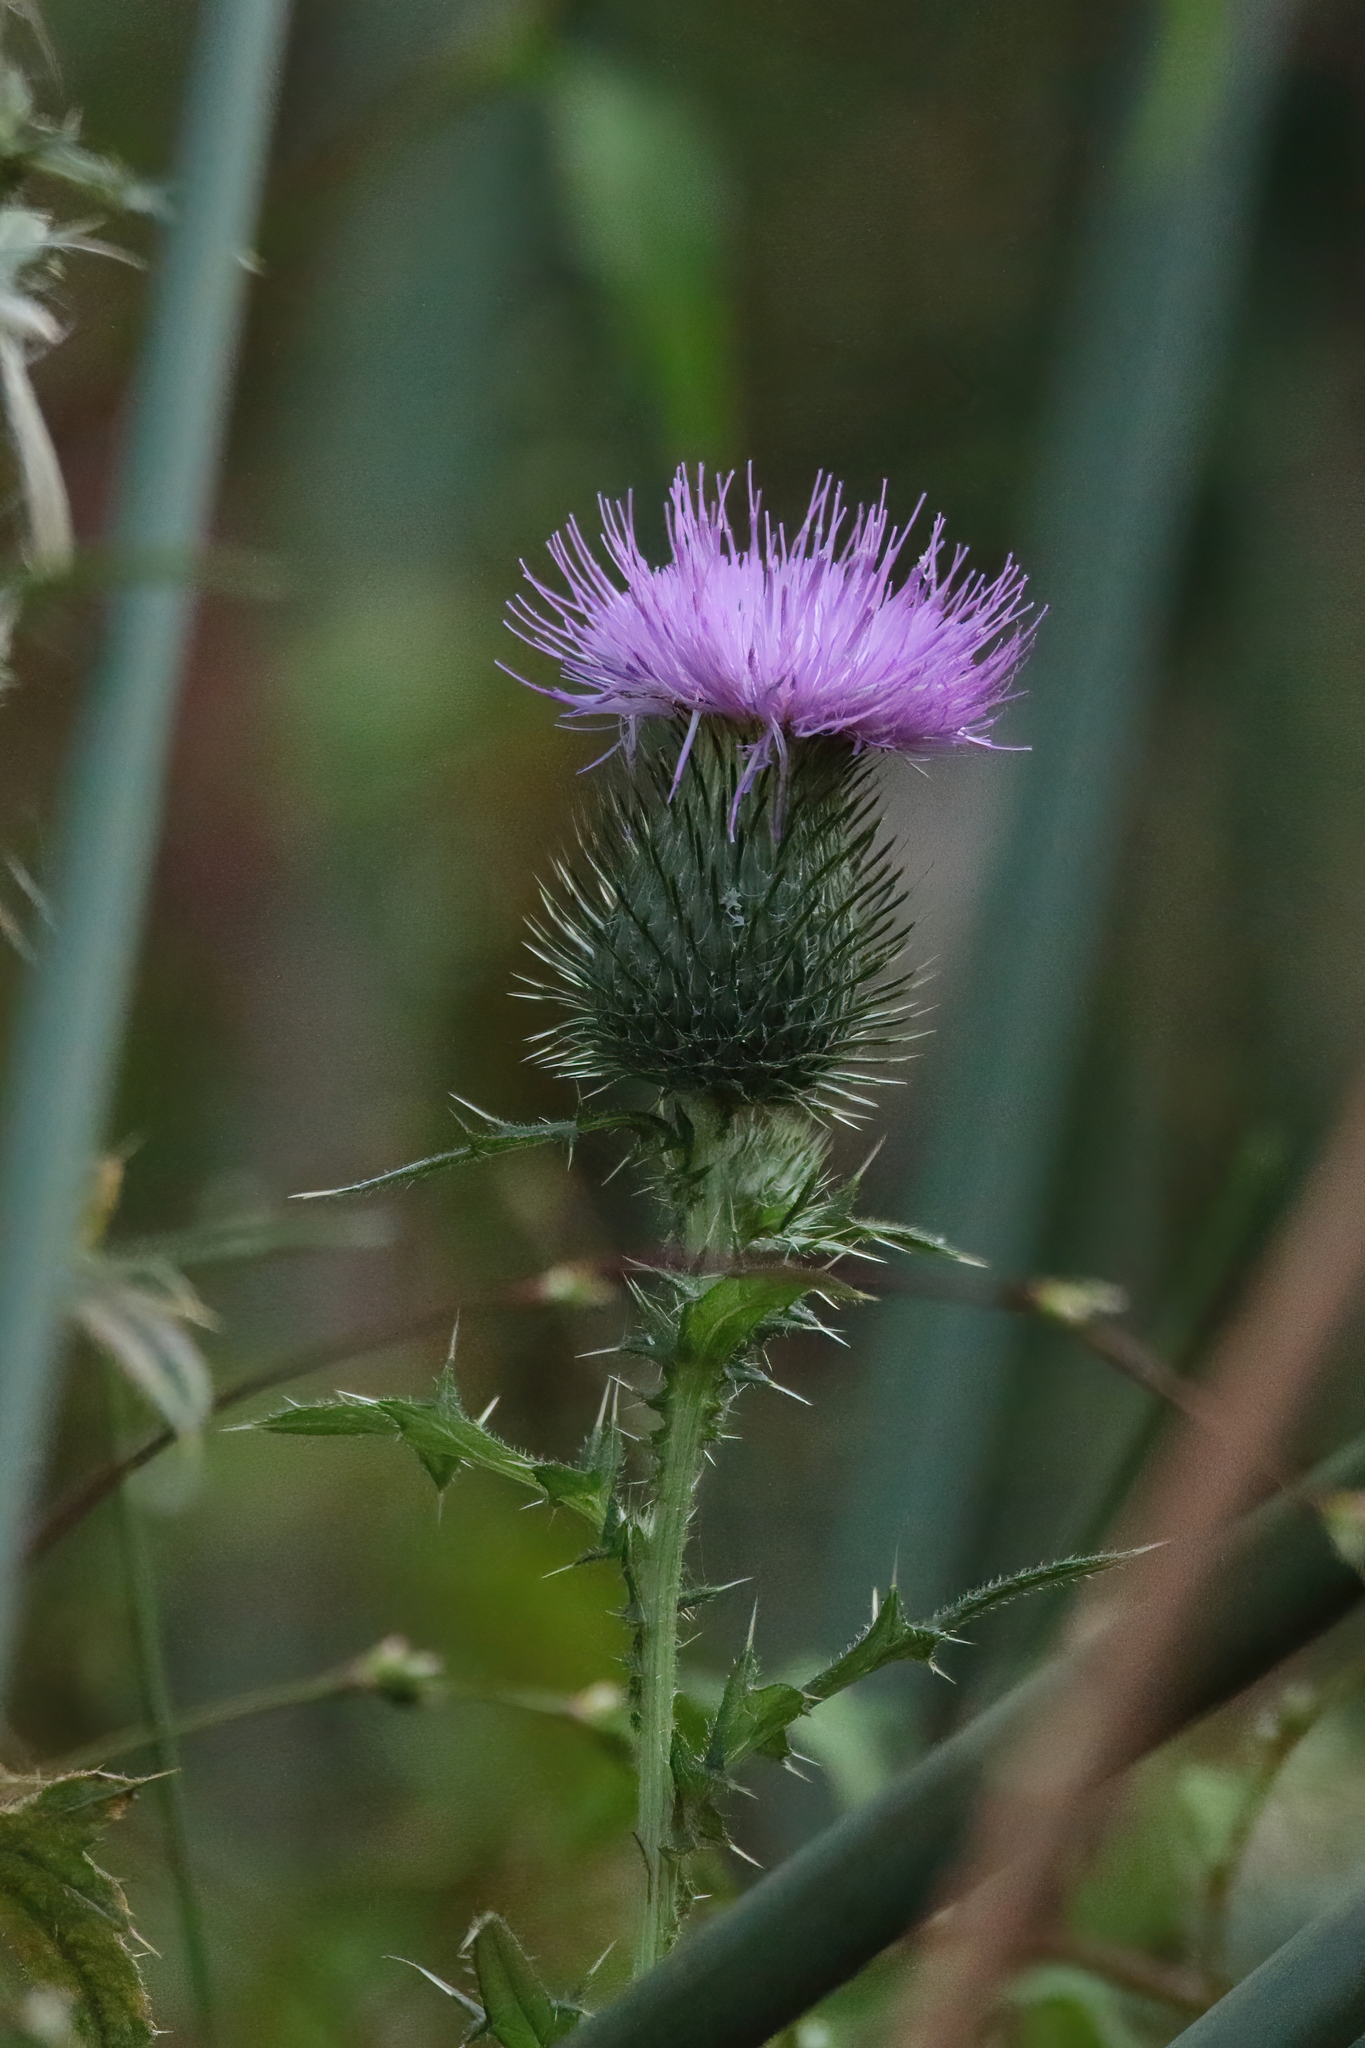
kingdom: Plantae
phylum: Tracheophyta
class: Magnoliopsida
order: Asterales
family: Asteraceae
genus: Cirsium
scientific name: Cirsium vulgare
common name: Bull thistle
